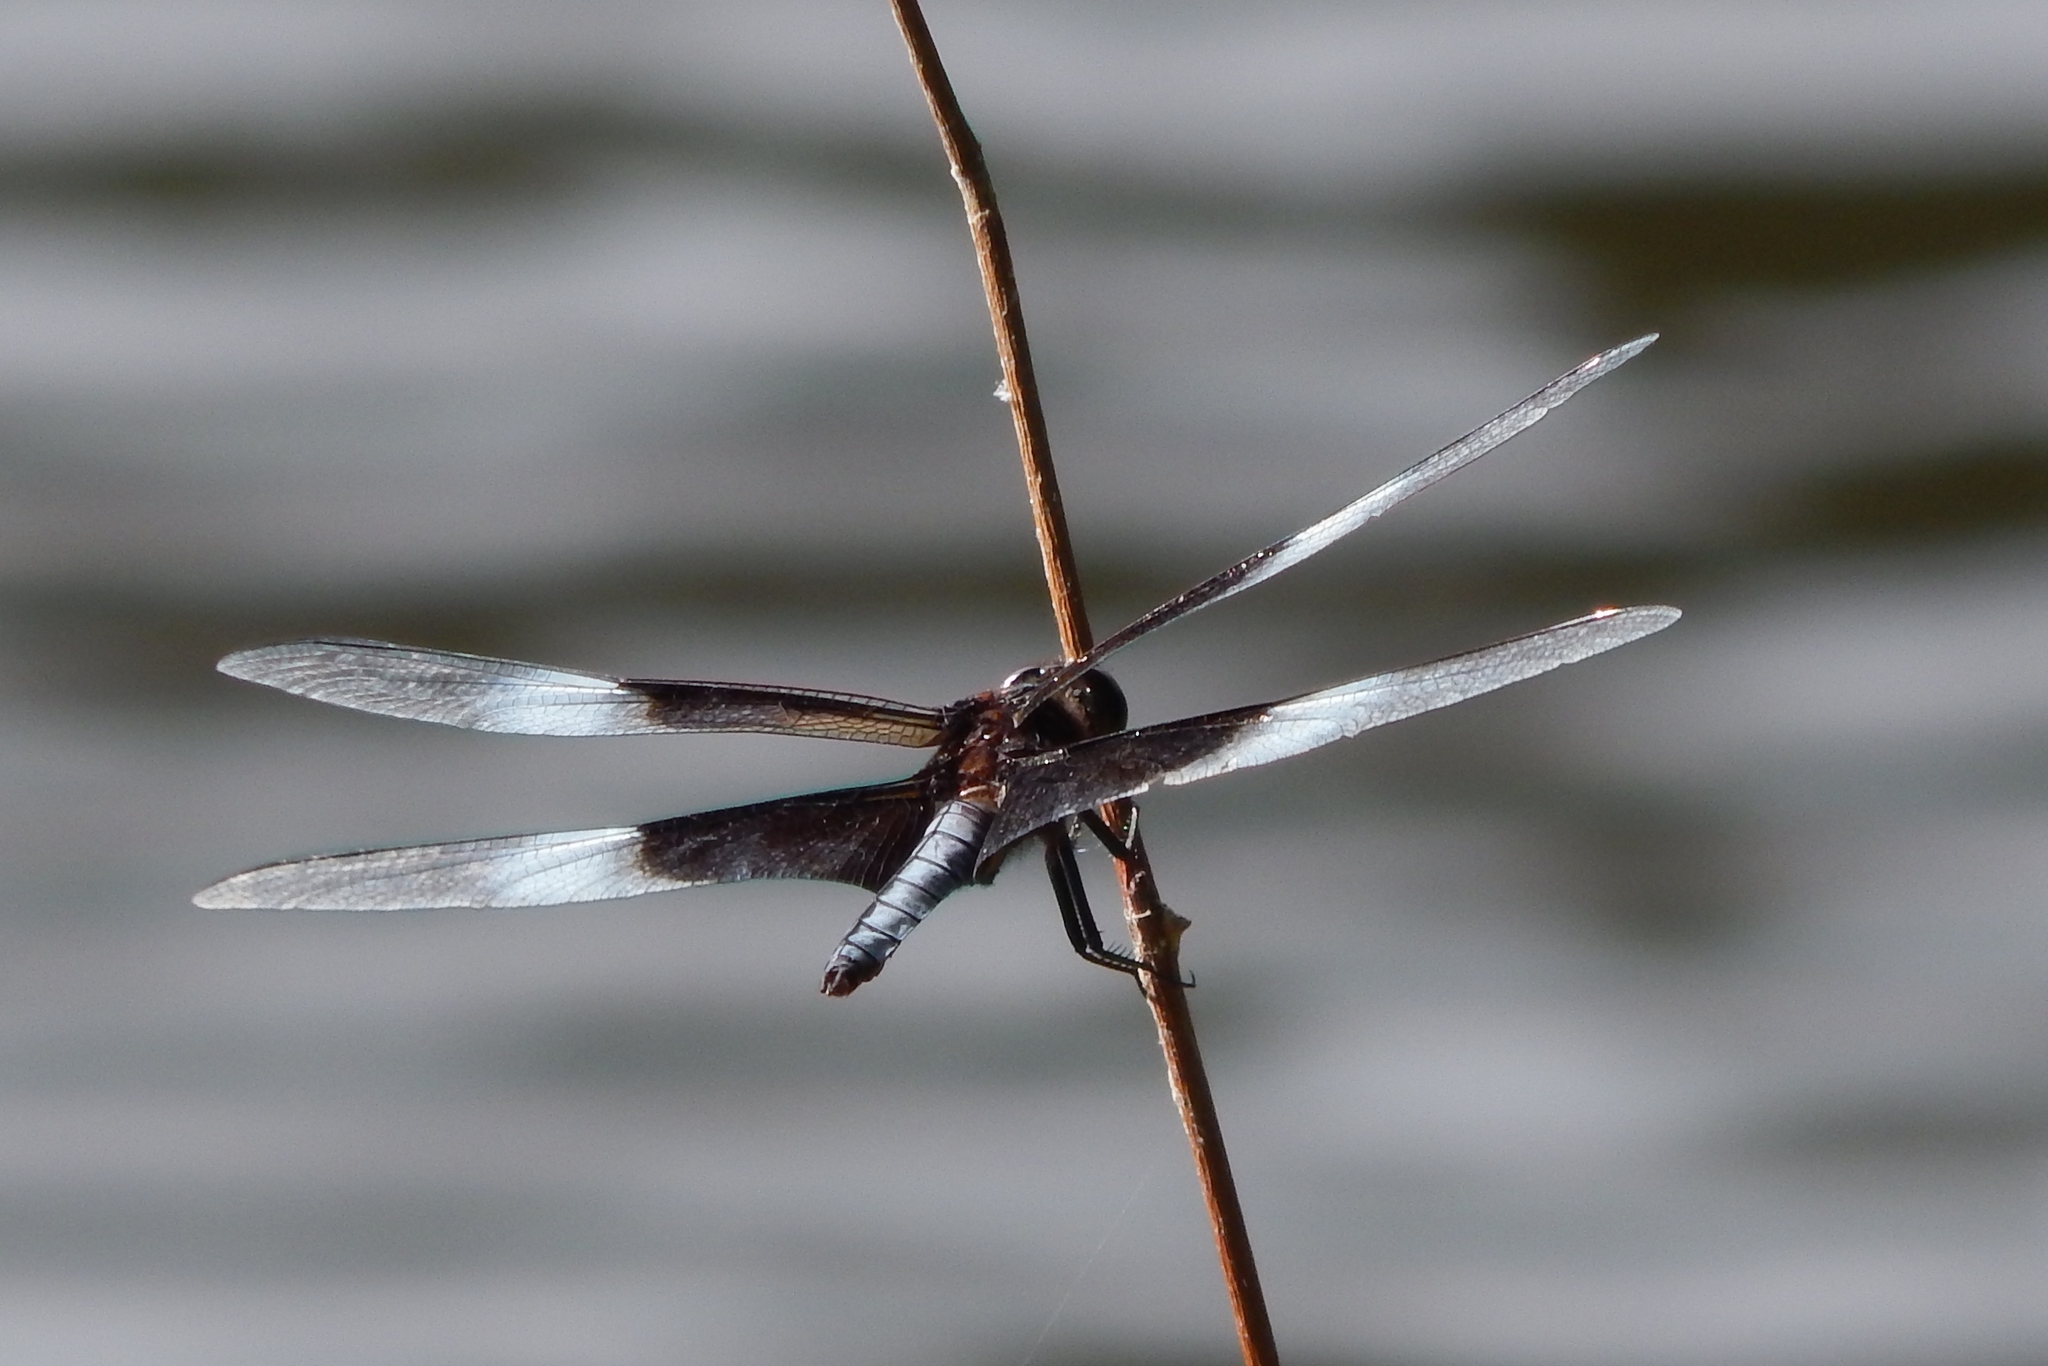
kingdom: Animalia
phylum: Arthropoda
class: Insecta
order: Odonata
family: Libellulidae
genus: Libellula
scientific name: Libellula luctuosa
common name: Widow skimmer
